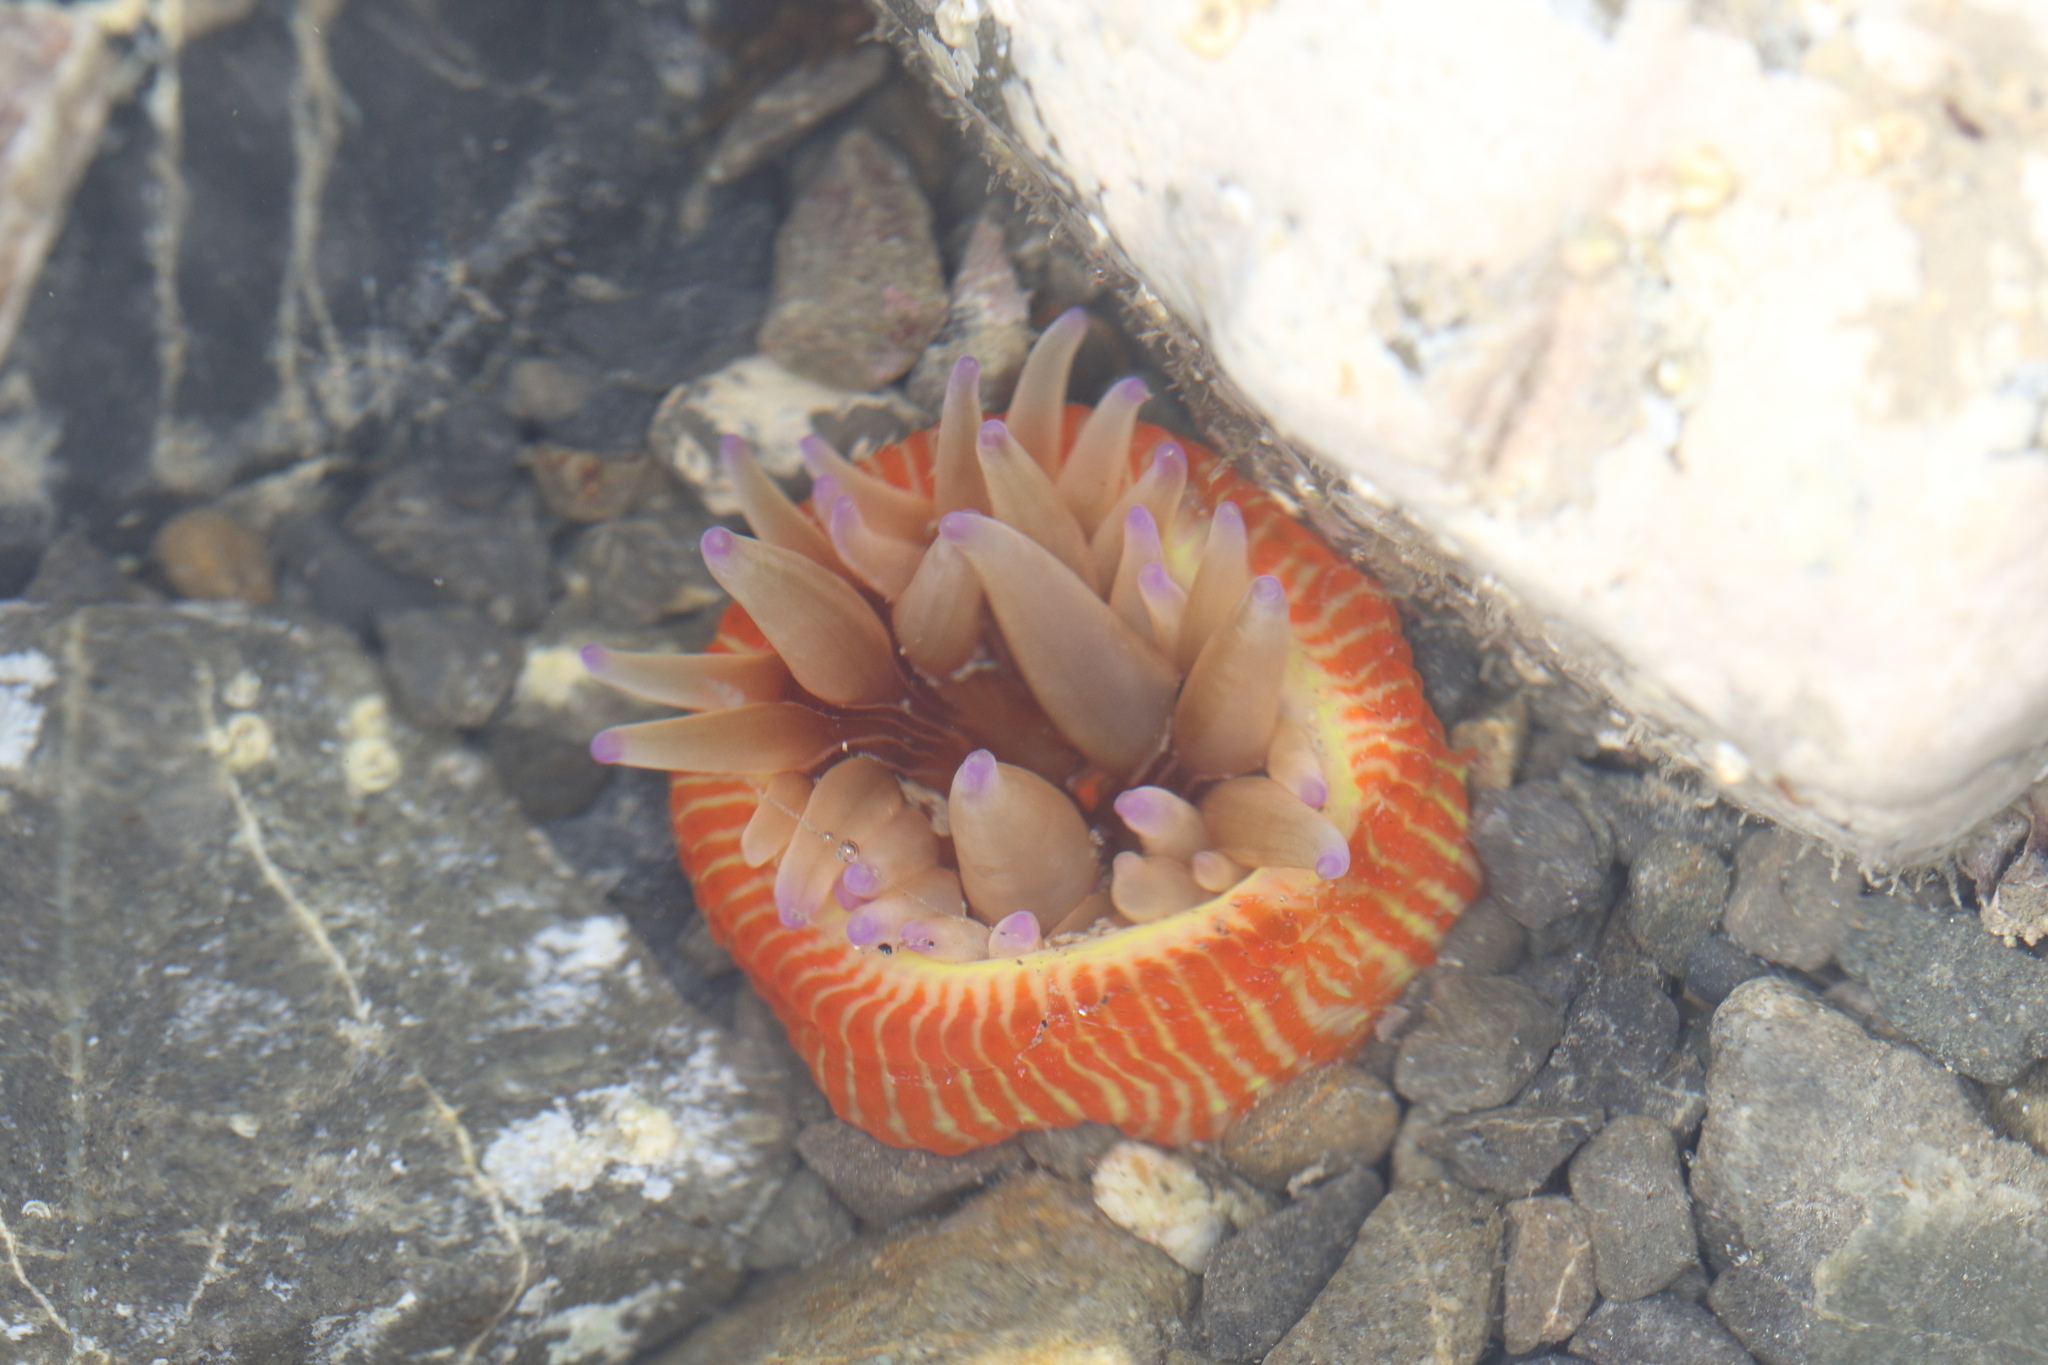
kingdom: Animalia
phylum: Cnidaria
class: Anthozoa
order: Actiniaria
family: Actiniidae
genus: Epiactis
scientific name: Epiactis thompsoni
